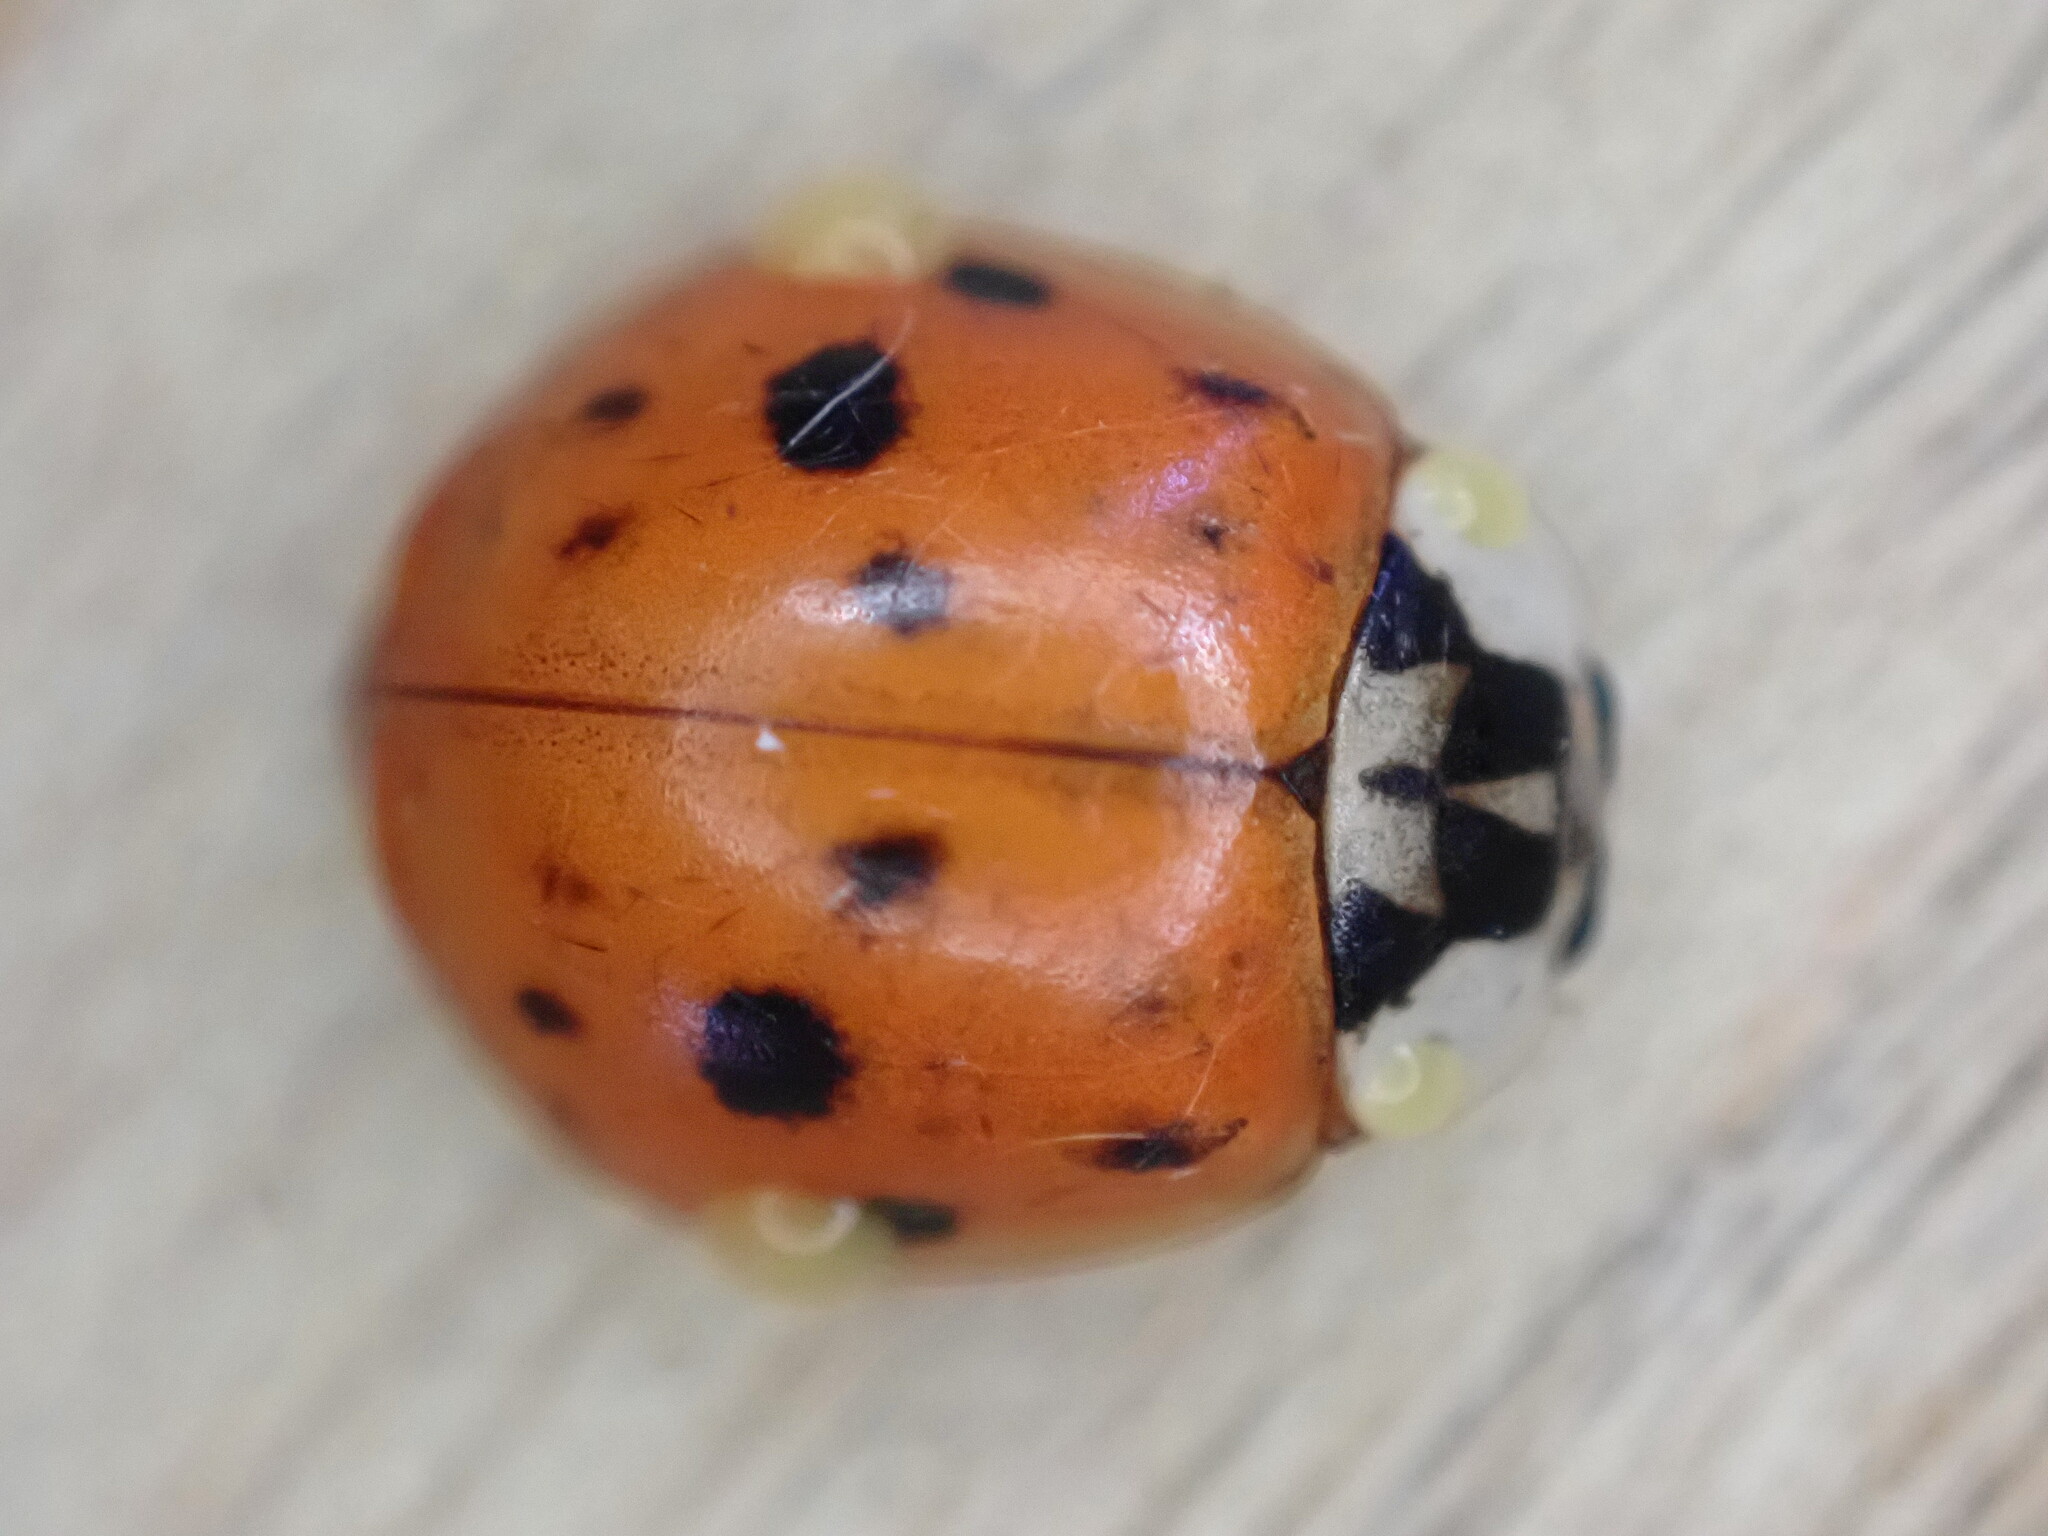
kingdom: Animalia
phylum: Arthropoda
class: Insecta
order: Coleoptera
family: Coccinellidae
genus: Harmonia
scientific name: Harmonia axyridis
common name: Harlequin ladybird
